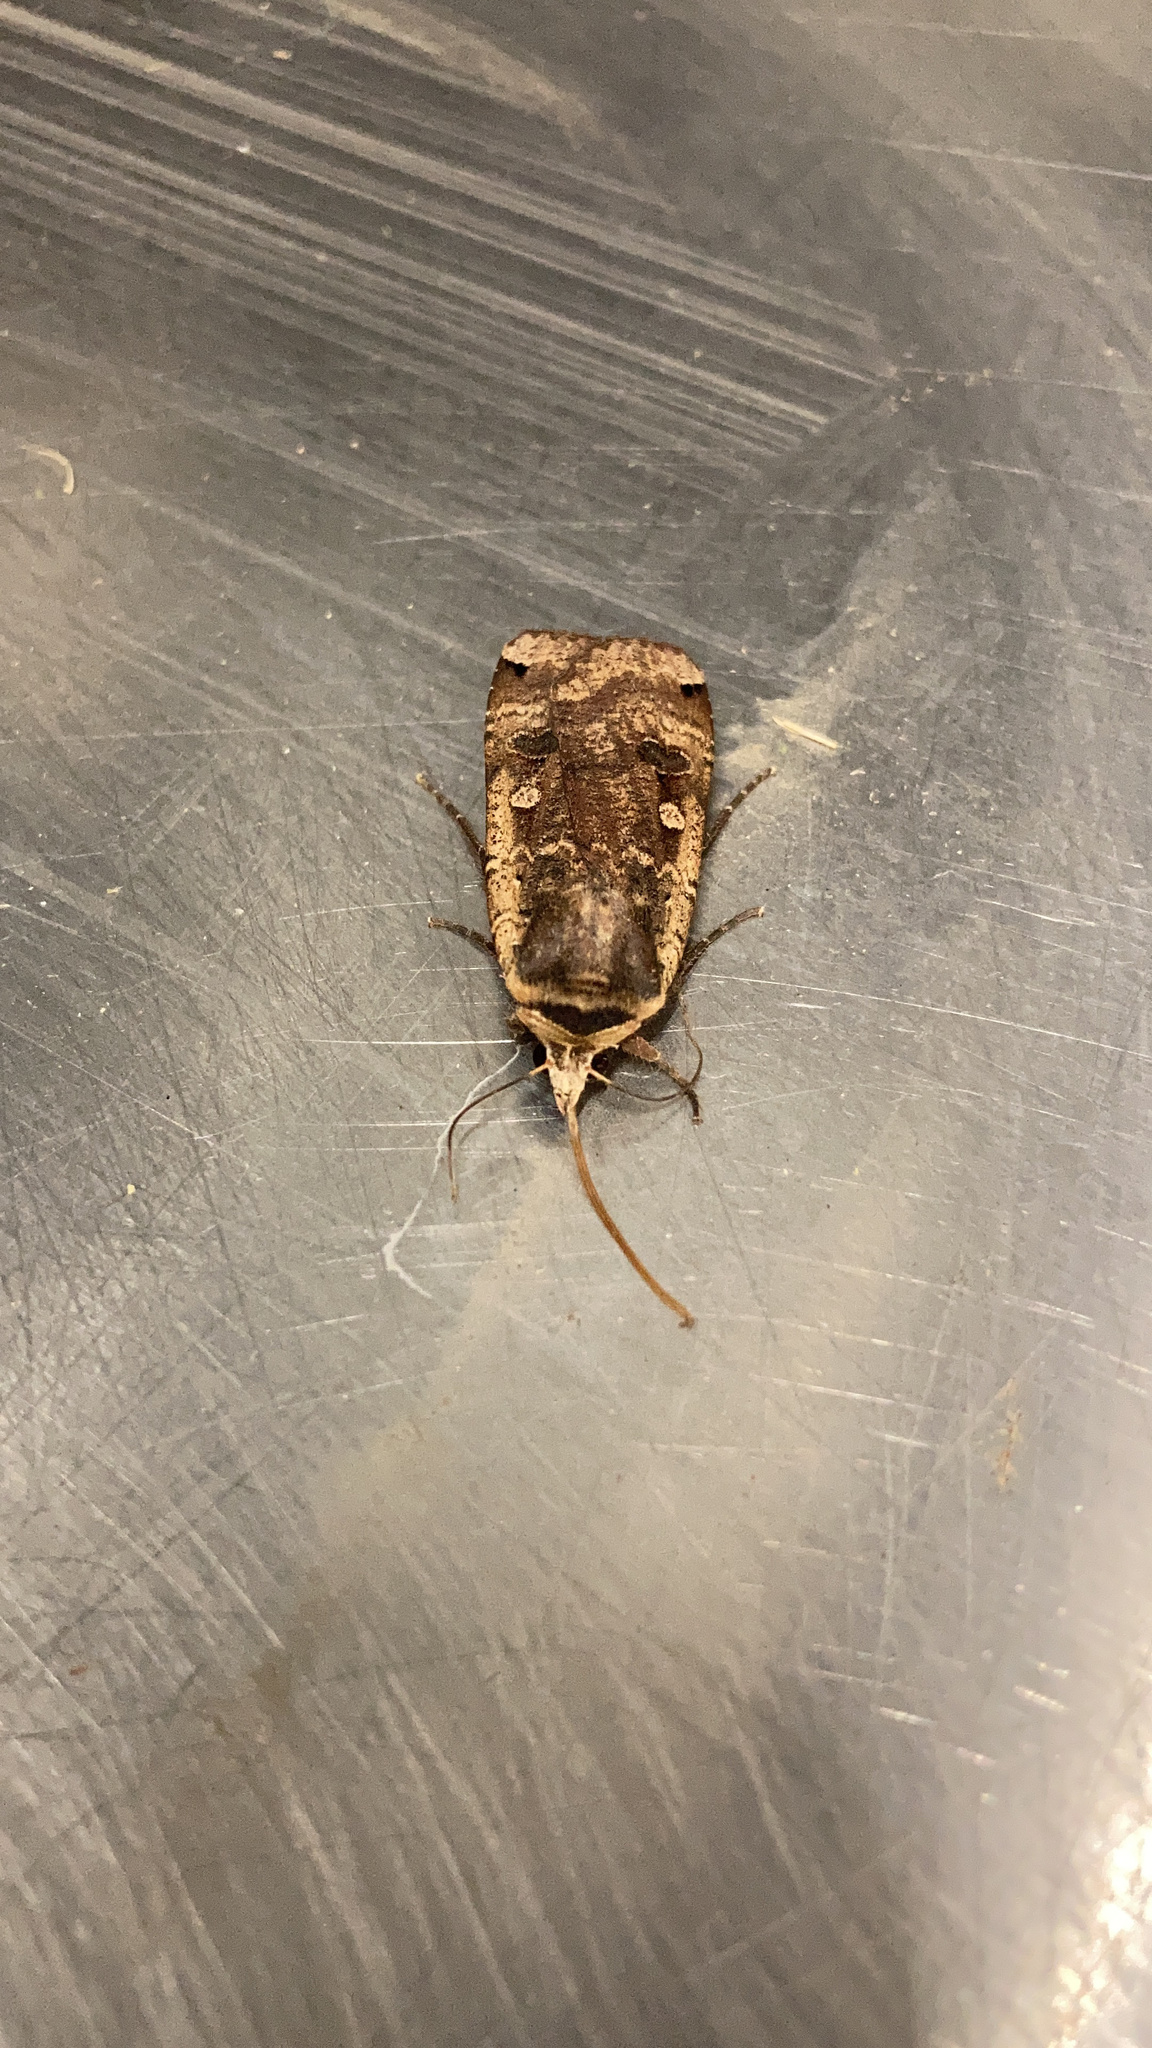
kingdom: Animalia
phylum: Arthropoda
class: Insecta
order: Lepidoptera
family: Noctuidae
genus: Noctua
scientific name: Noctua pronuba
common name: Large yellow underwing
